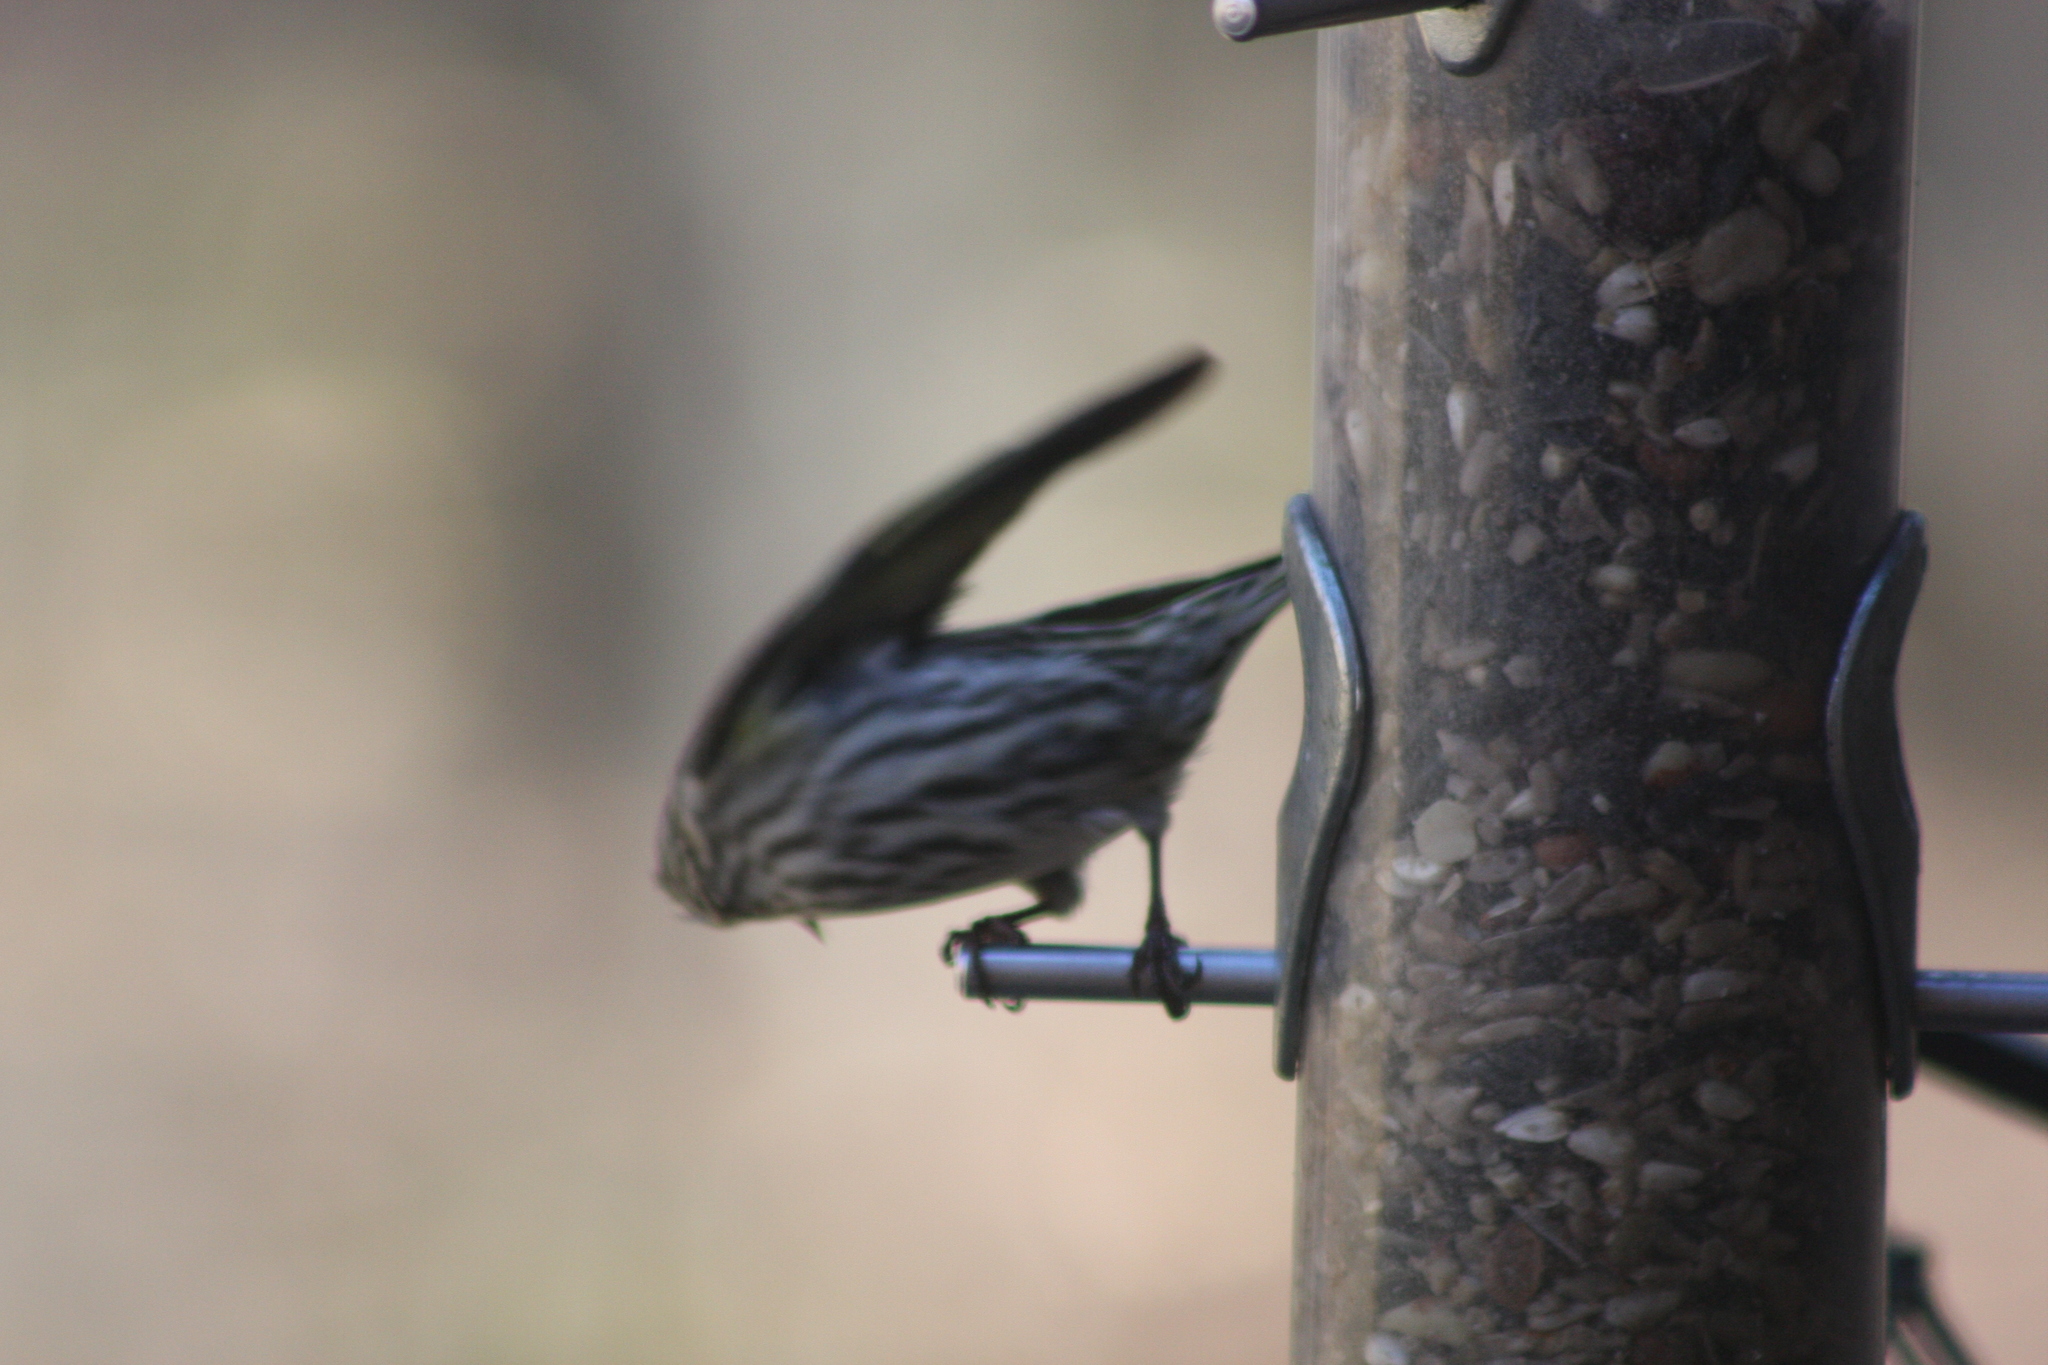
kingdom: Animalia
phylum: Chordata
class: Aves
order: Passeriformes
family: Fringillidae
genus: Spinus
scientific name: Spinus pinus
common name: Pine siskin
